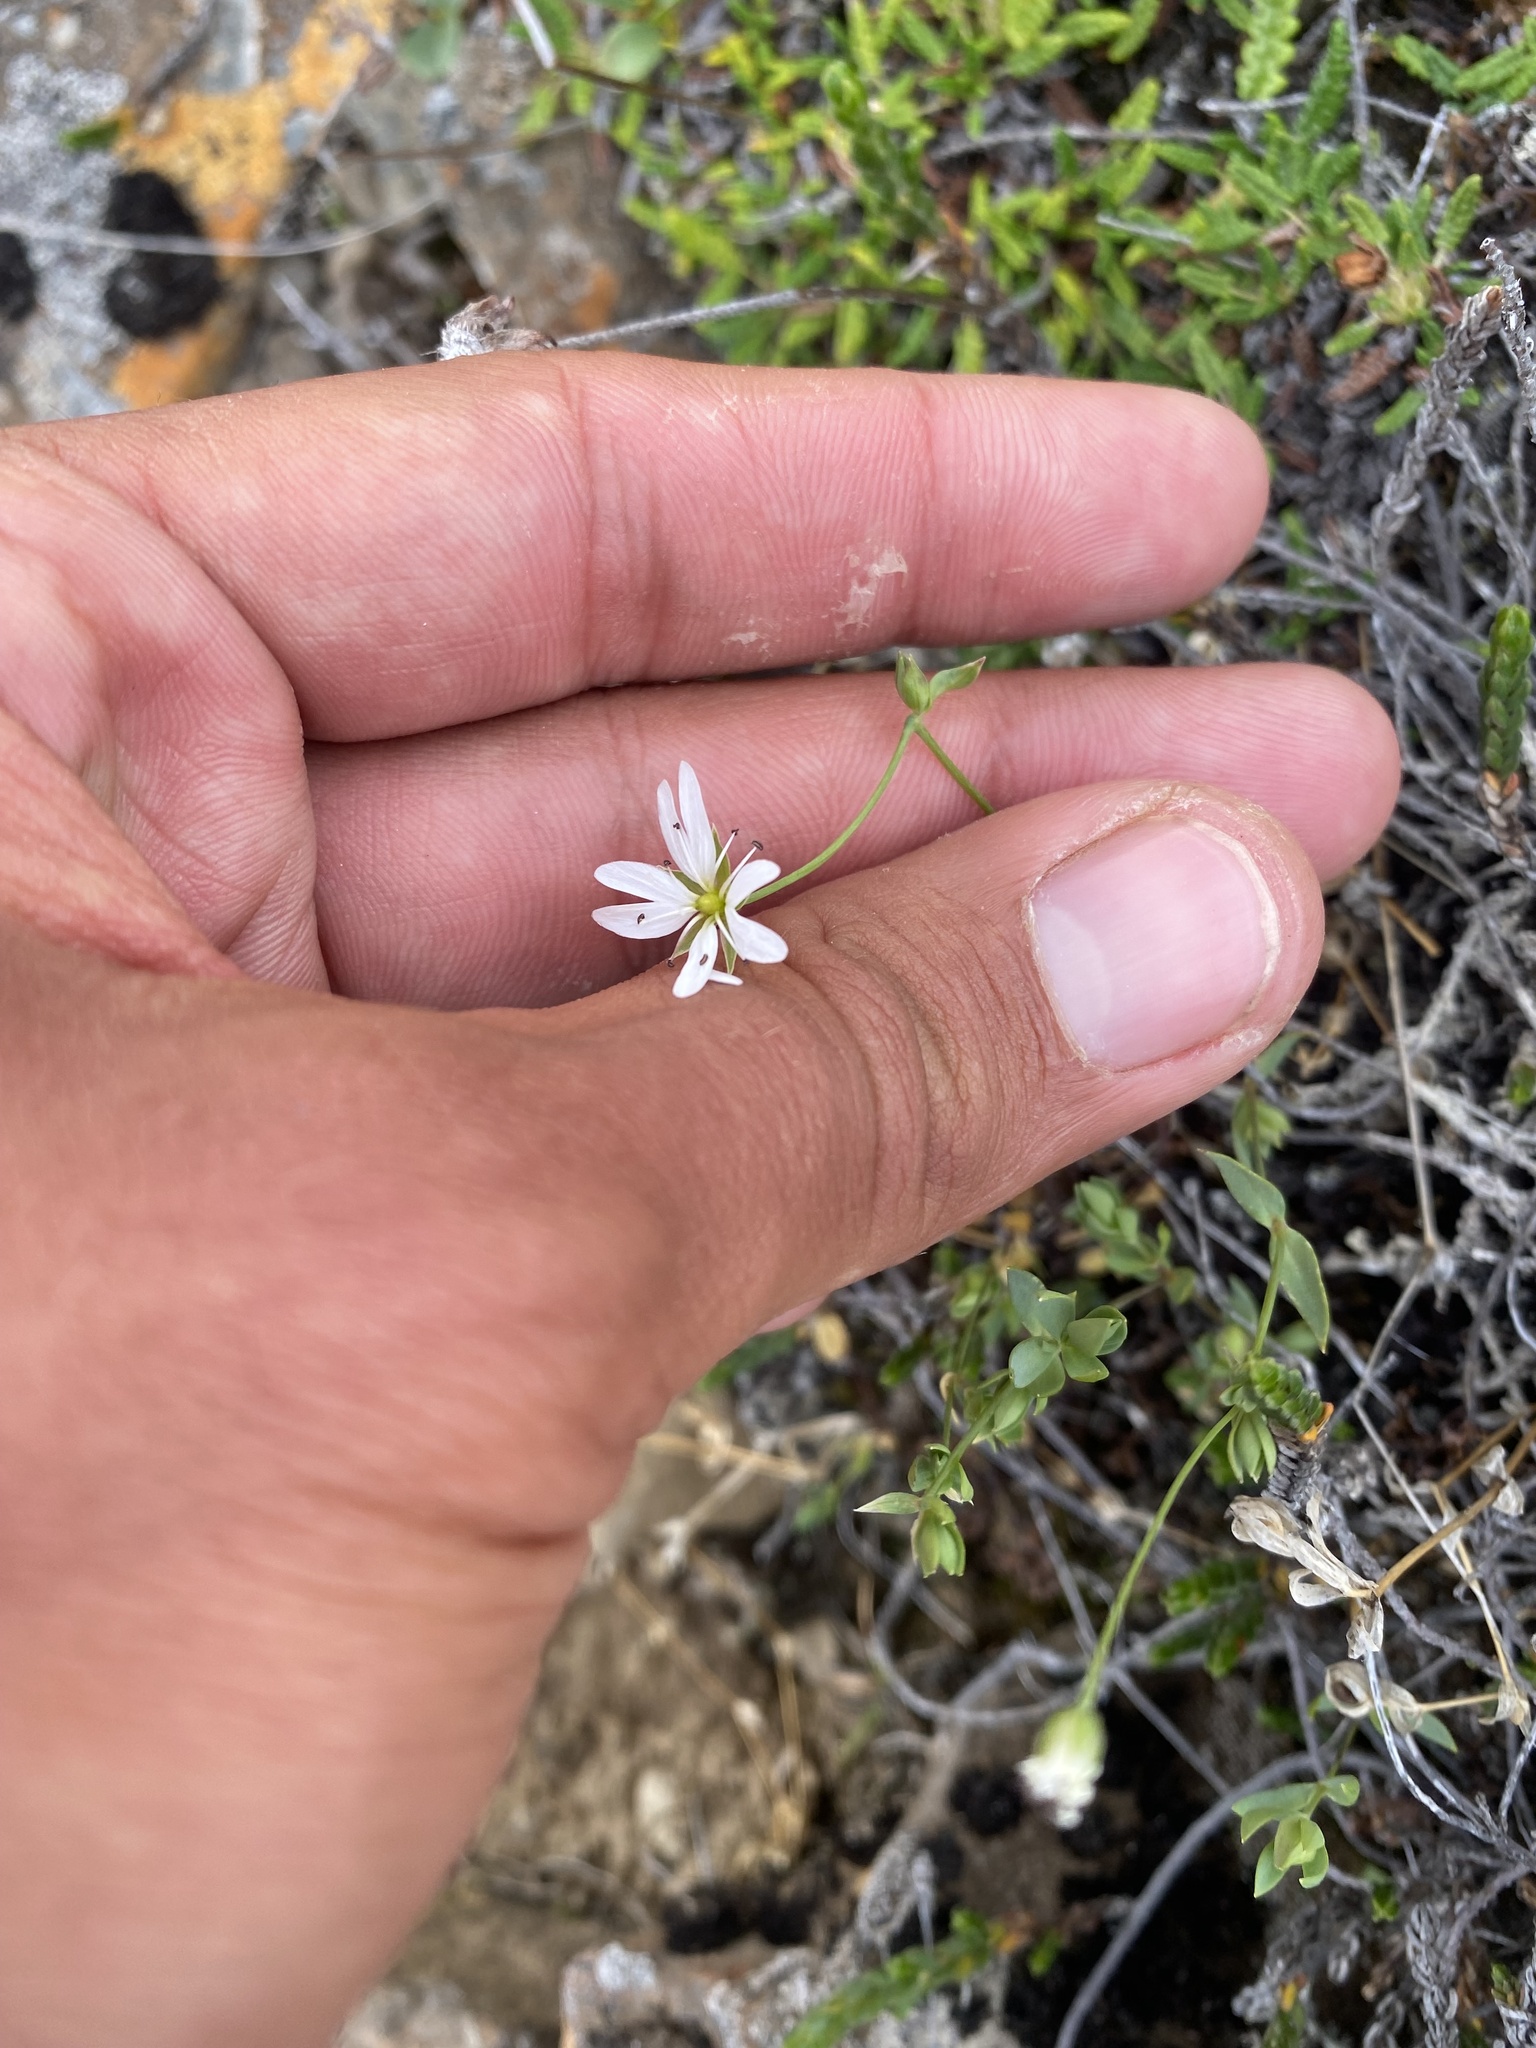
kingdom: Plantae
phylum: Tracheophyta
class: Magnoliopsida
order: Caryophyllales
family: Caryophyllaceae
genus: Stellaria
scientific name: Stellaria longipes
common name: Goldie's starwort
